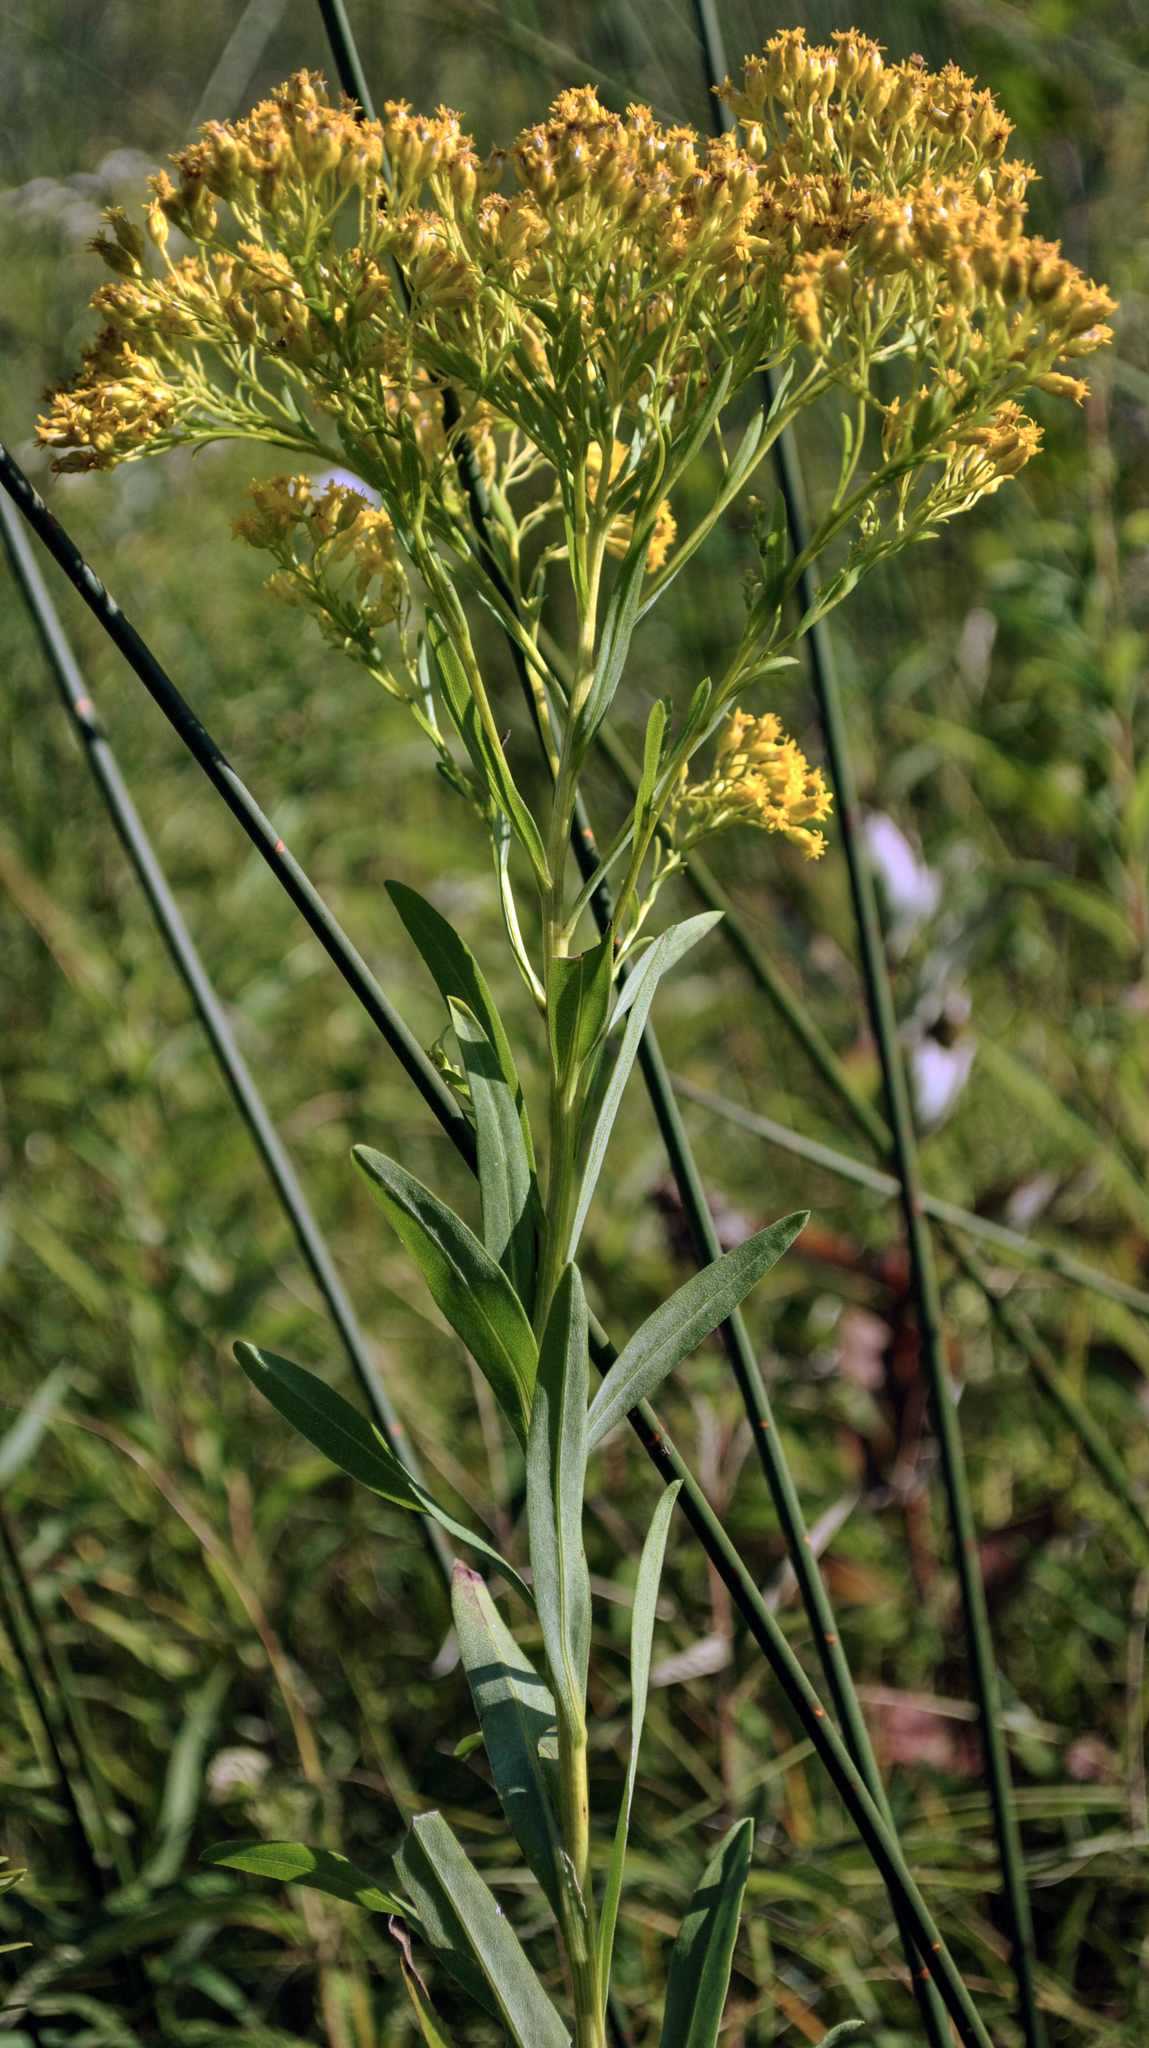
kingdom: Plantae
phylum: Tracheophyta
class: Magnoliopsida
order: Asterales
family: Asteraceae
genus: Solidago
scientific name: Solidago ohioensis
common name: Ohio goldenrod
